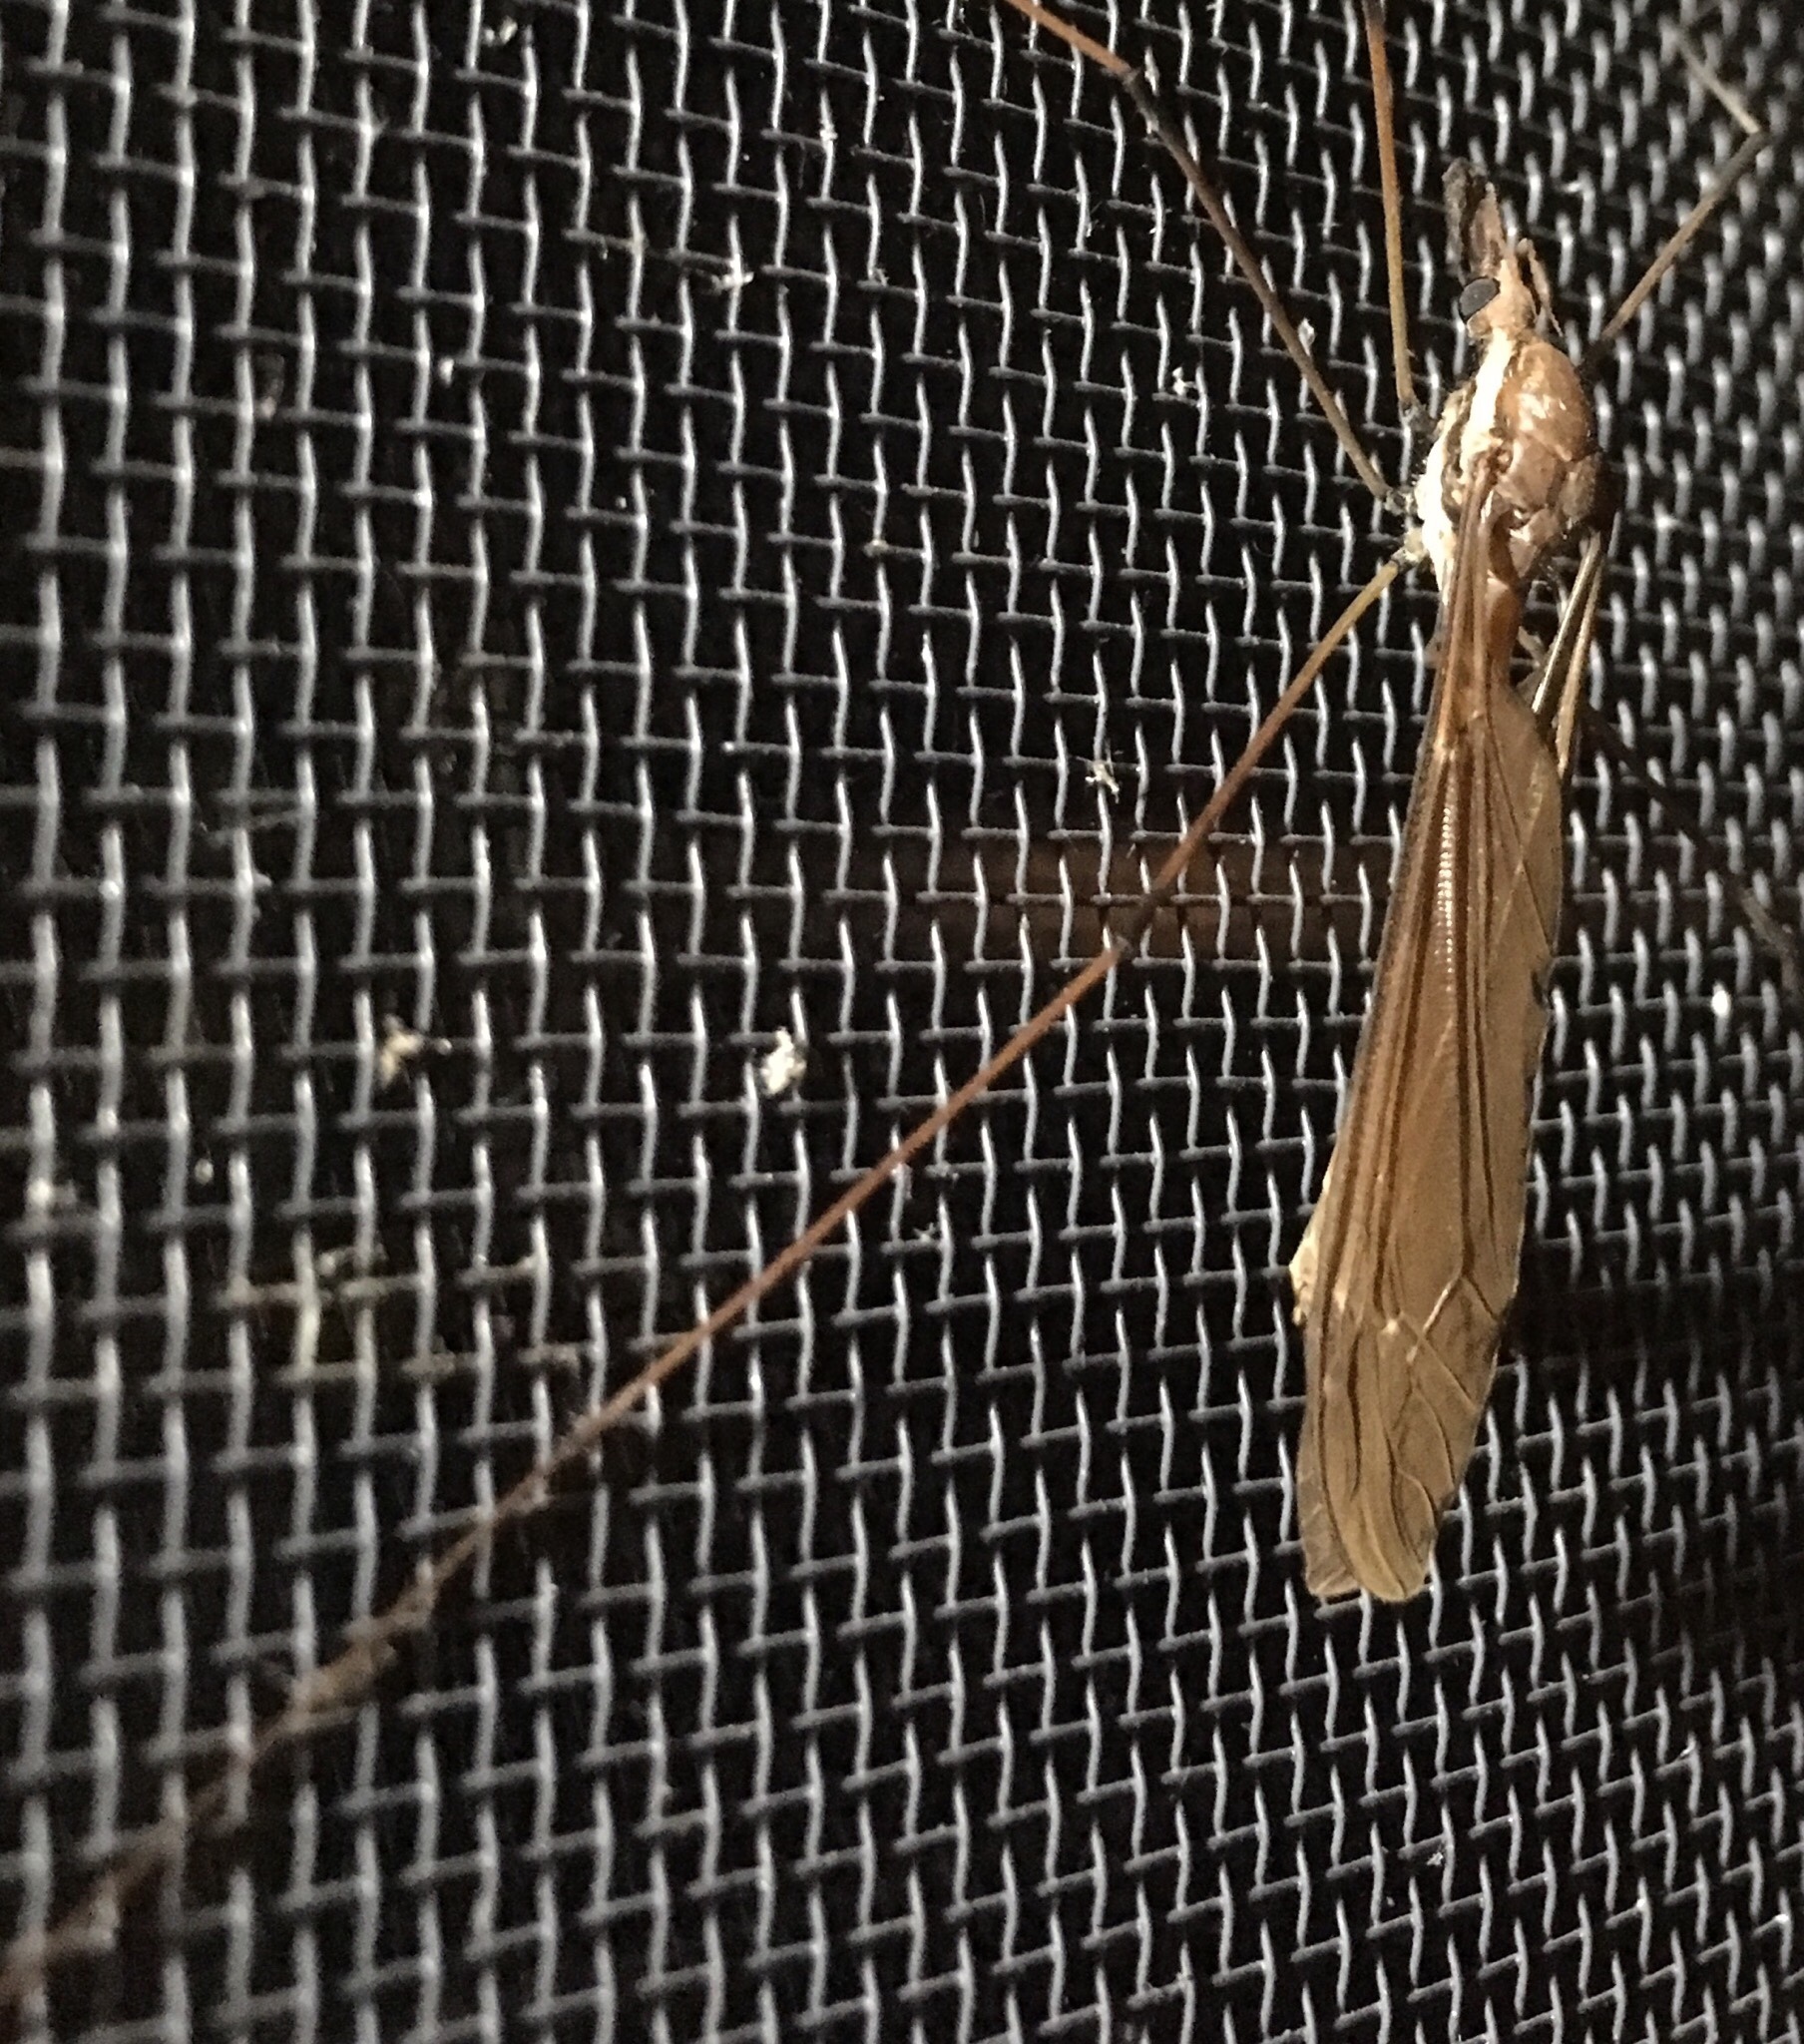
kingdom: Animalia
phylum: Arthropoda
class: Insecta
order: Diptera
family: Tipulidae
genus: Holorusia
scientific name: Holorusia hespera
